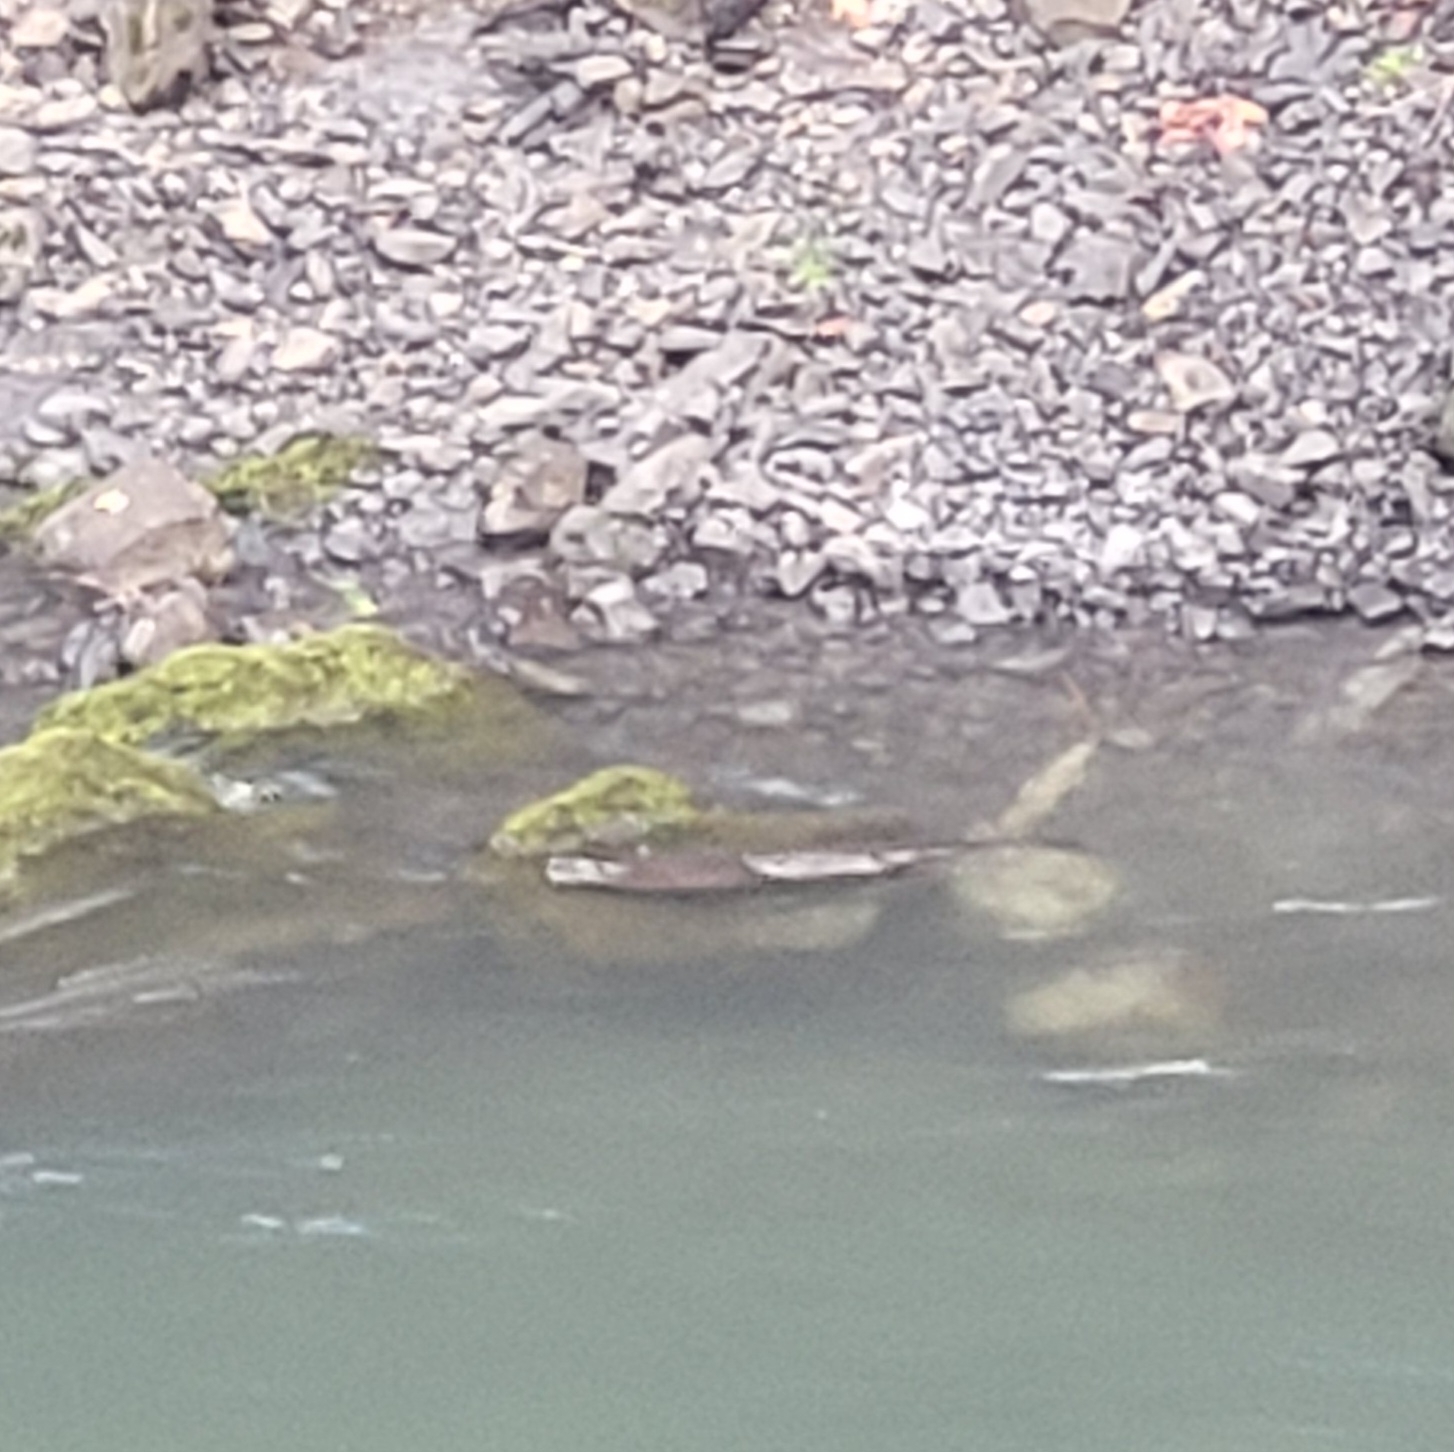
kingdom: Animalia
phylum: Chordata
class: Mammalia
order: Carnivora
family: Mustelidae
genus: Lontra
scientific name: Lontra canadensis
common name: North american river otter
